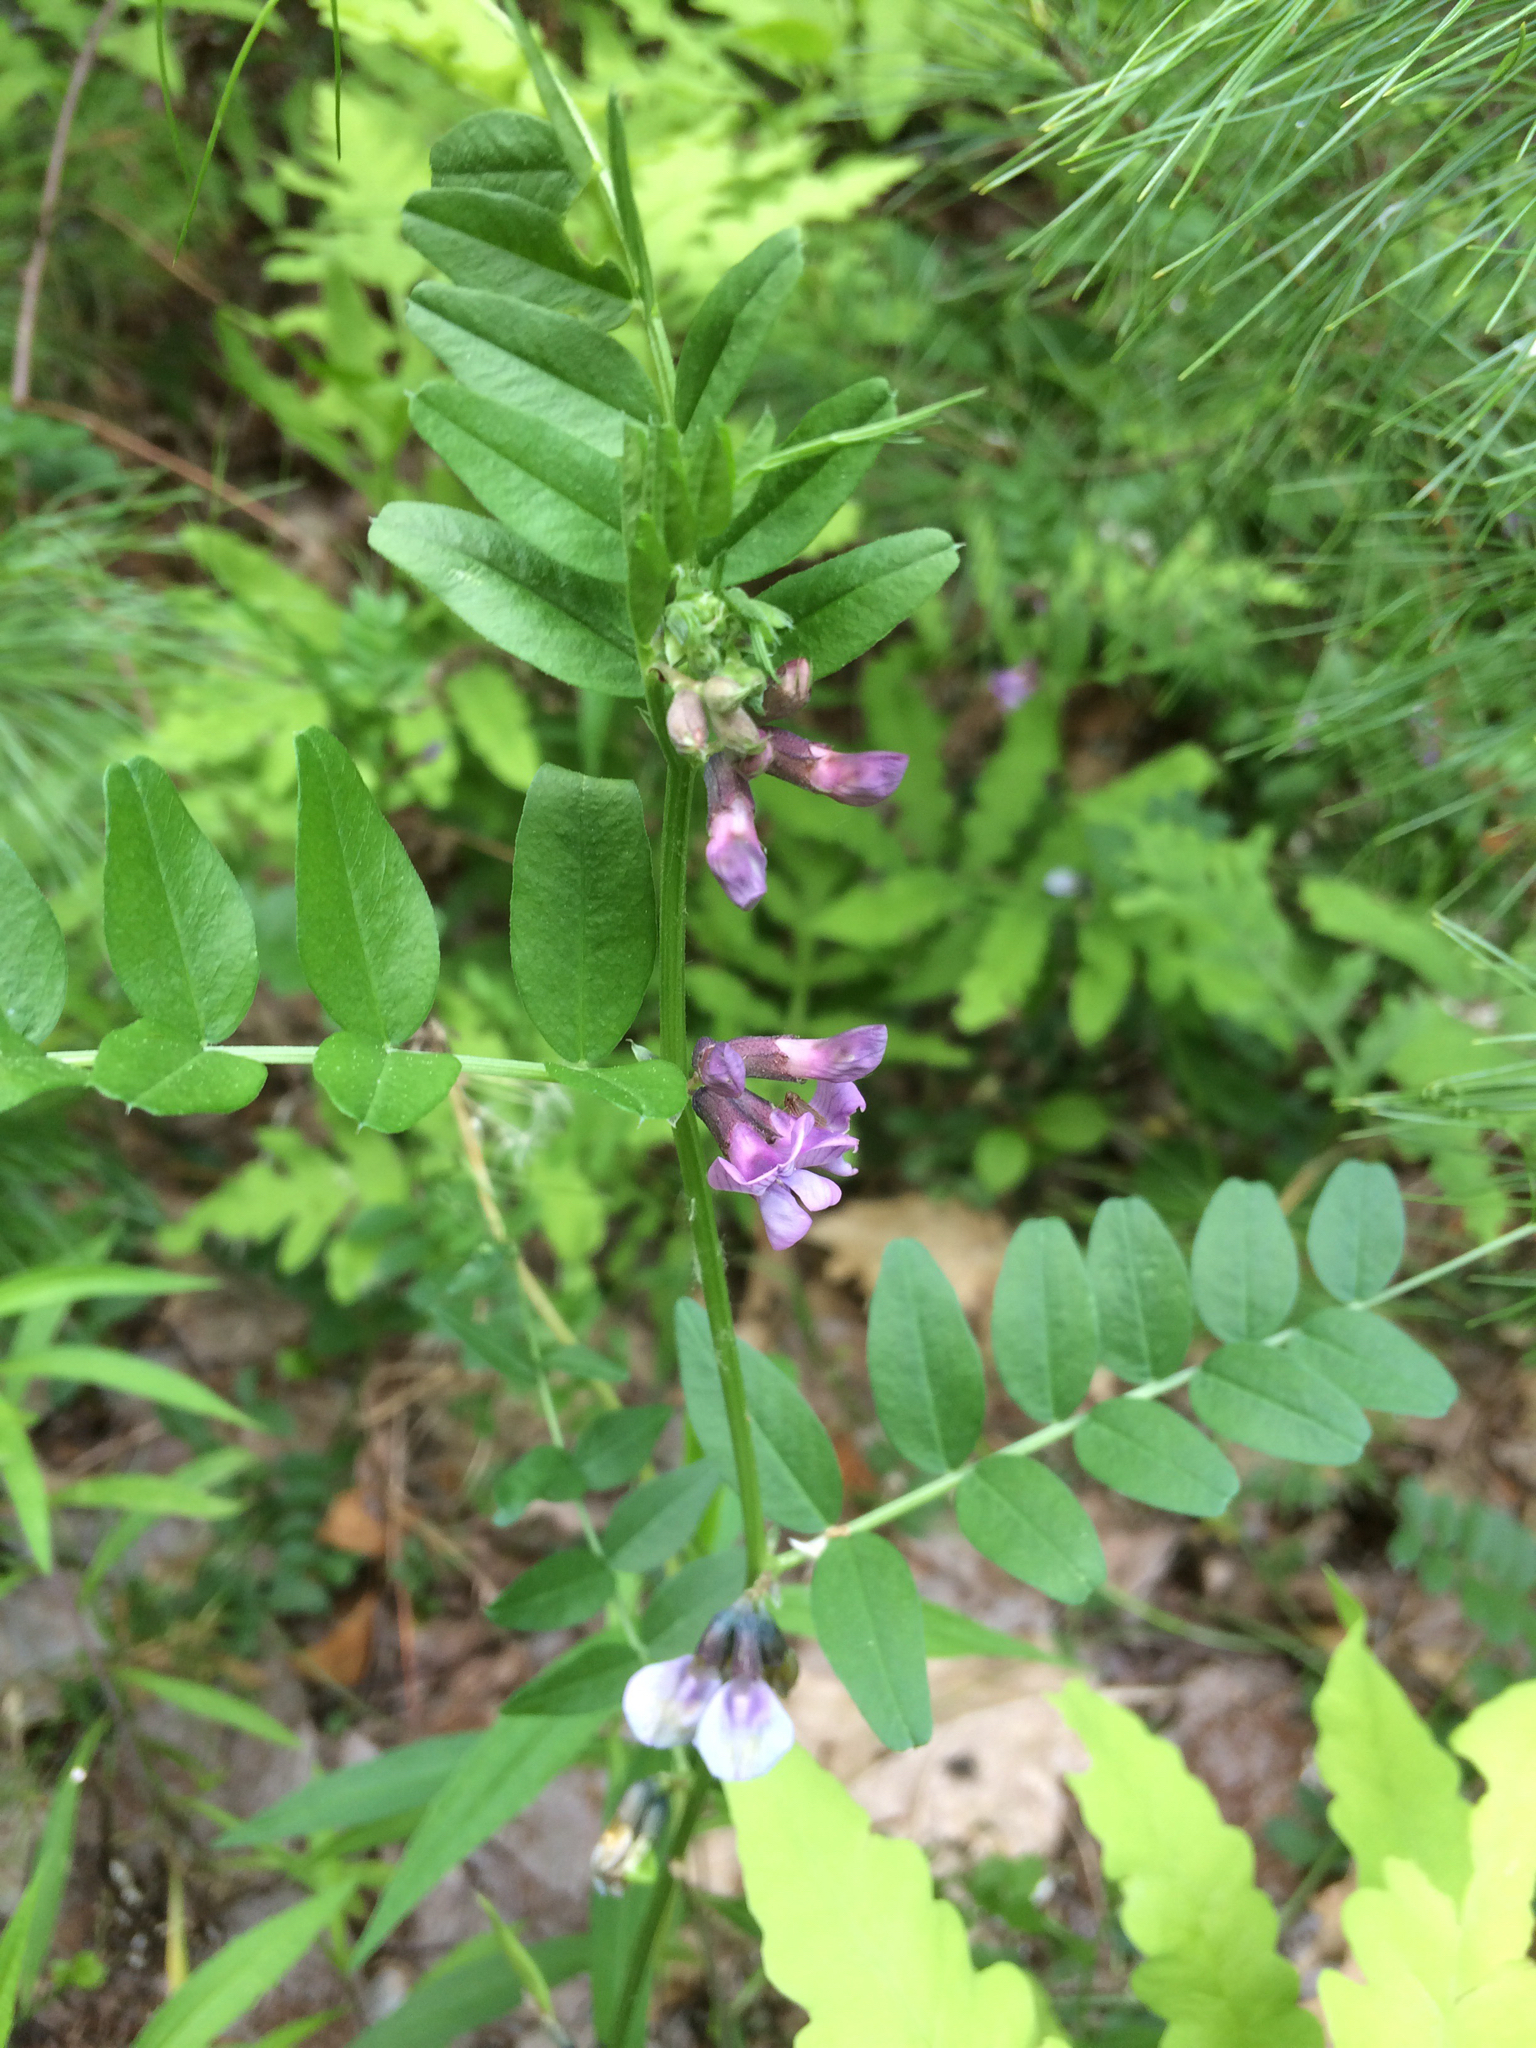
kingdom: Plantae
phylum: Tracheophyta
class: Magnoliopsida
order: Fabales
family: Fabaceae
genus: Vicia
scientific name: Vicia sepium
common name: Bush vetch
